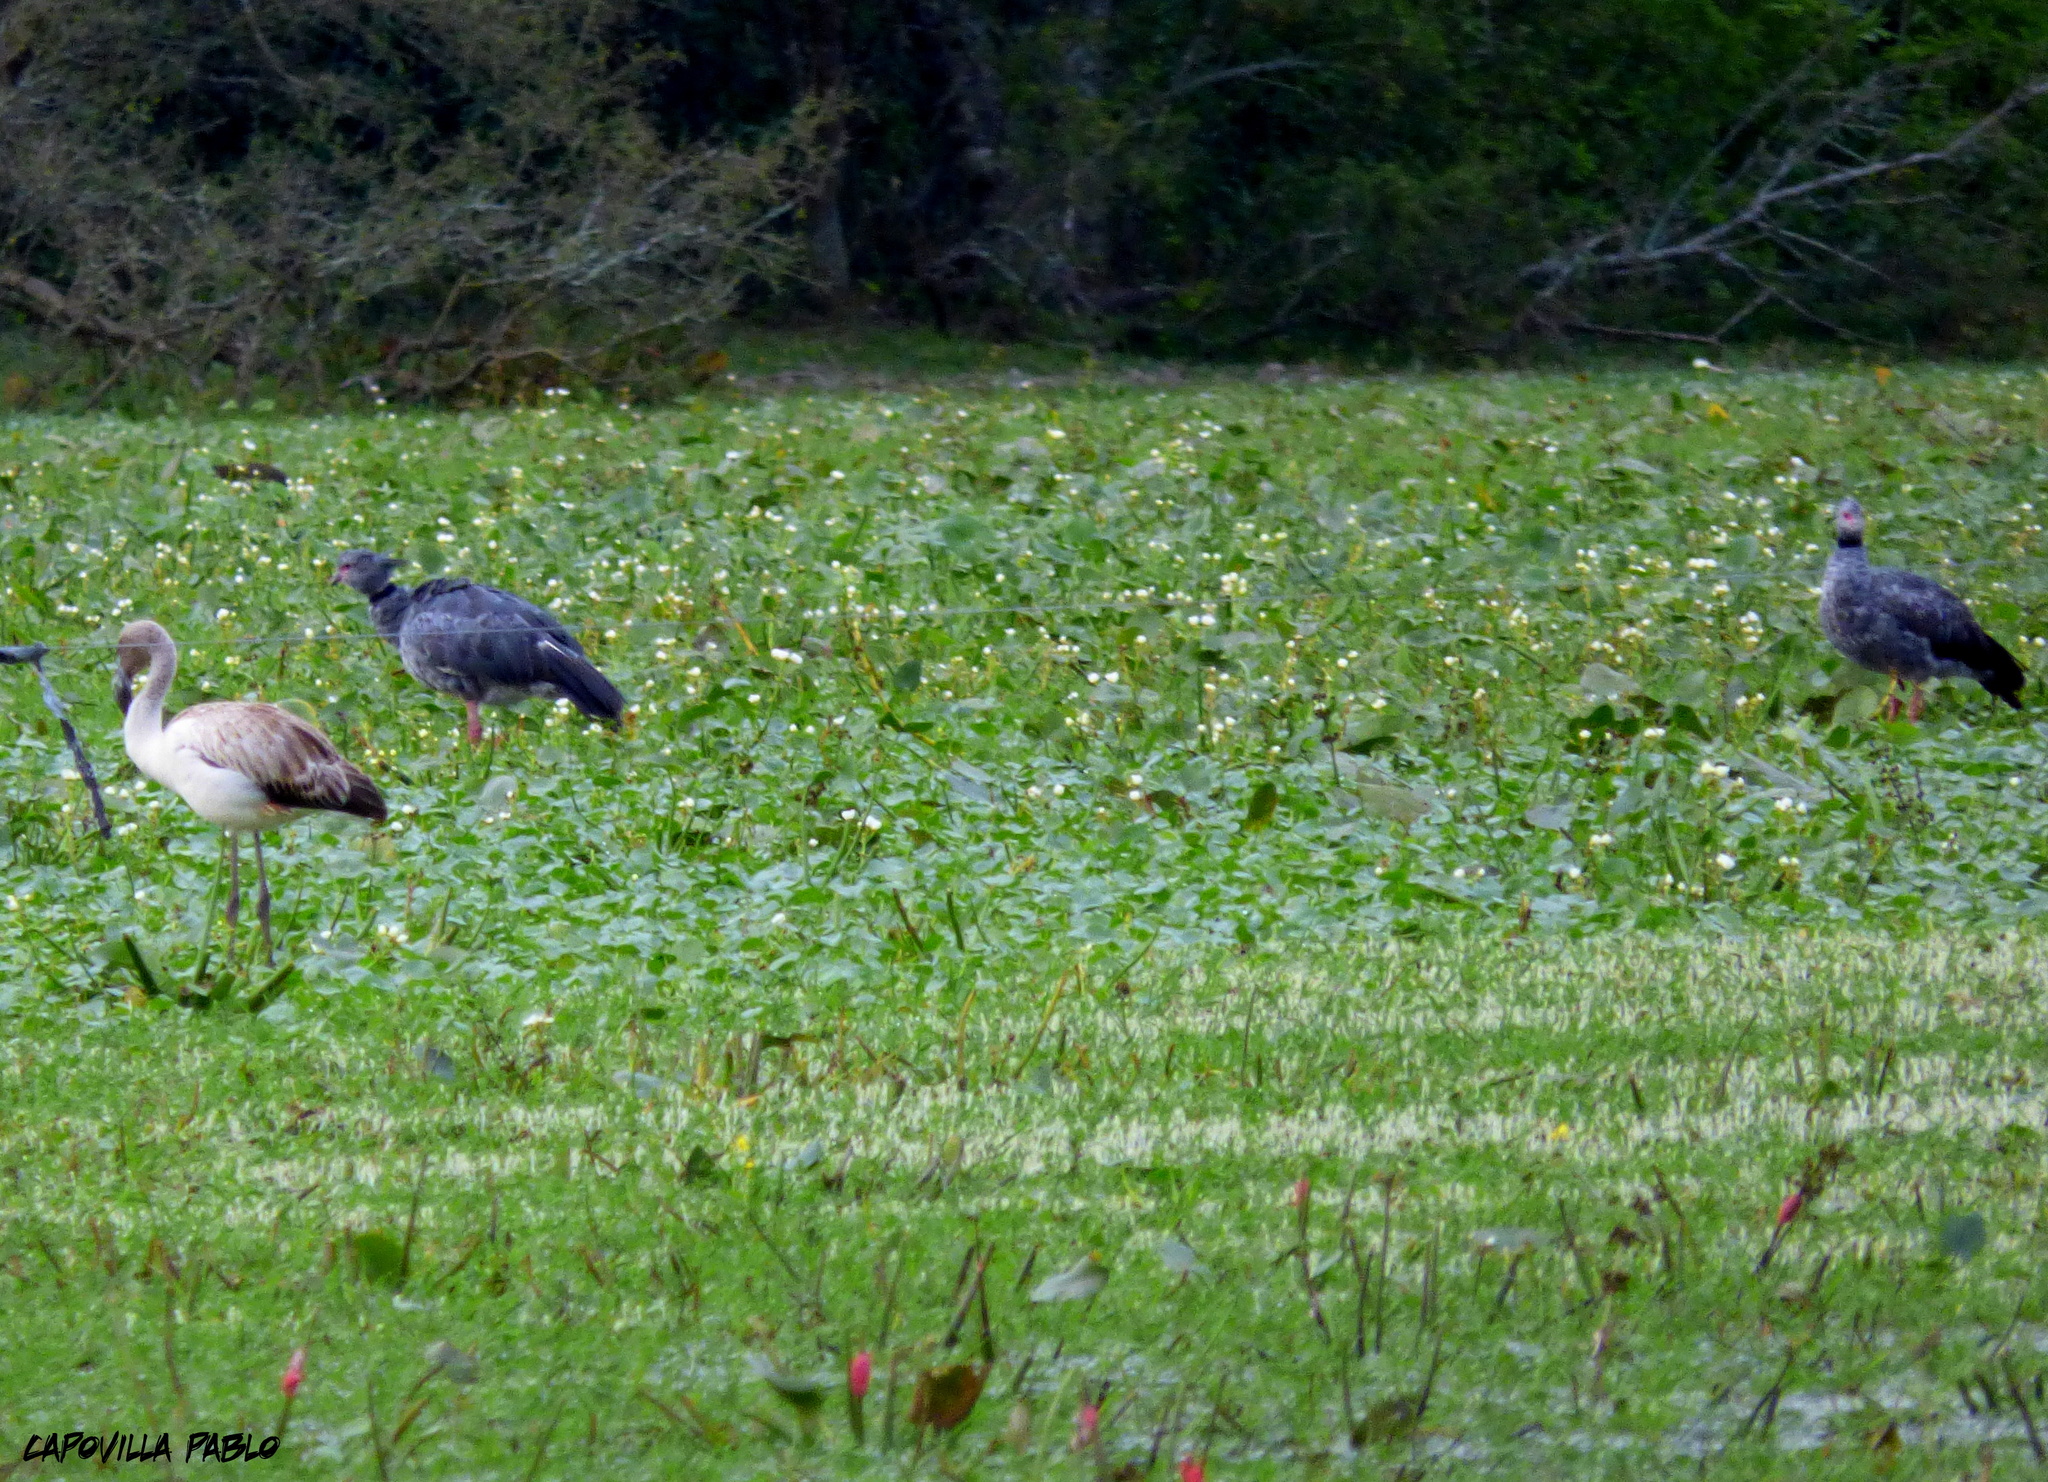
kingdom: Animalia
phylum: Chordata
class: Aves
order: Phoenicopteriformes
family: Phoenicopteridae
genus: Phoenicopterus
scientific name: Phoenicopterus chilensis
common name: Chilean flamingo
